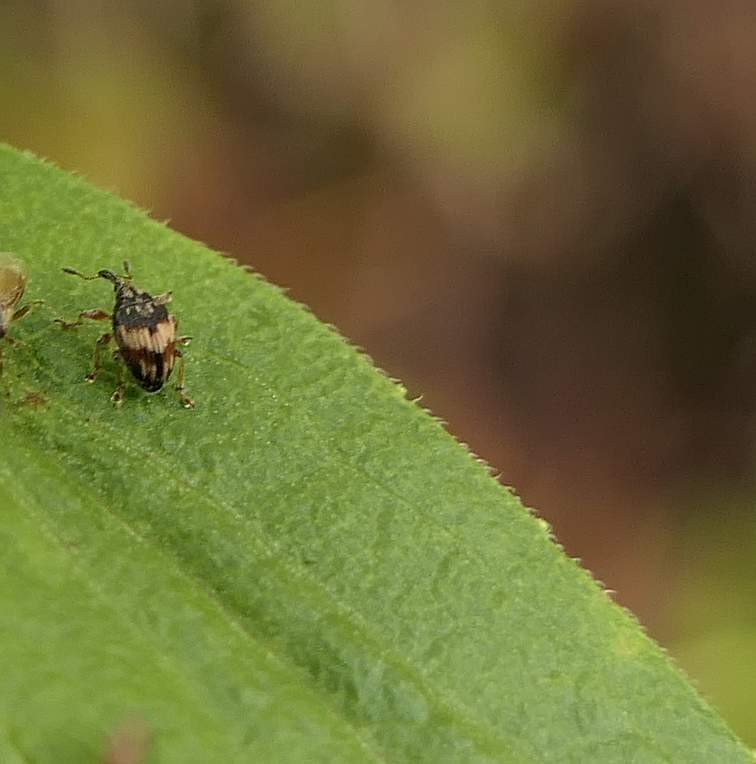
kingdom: Animalia
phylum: Arthropoda
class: Insecta
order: Coleoptera
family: Brentidae
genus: Nanophyes
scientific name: Nanophyes marmoratus
